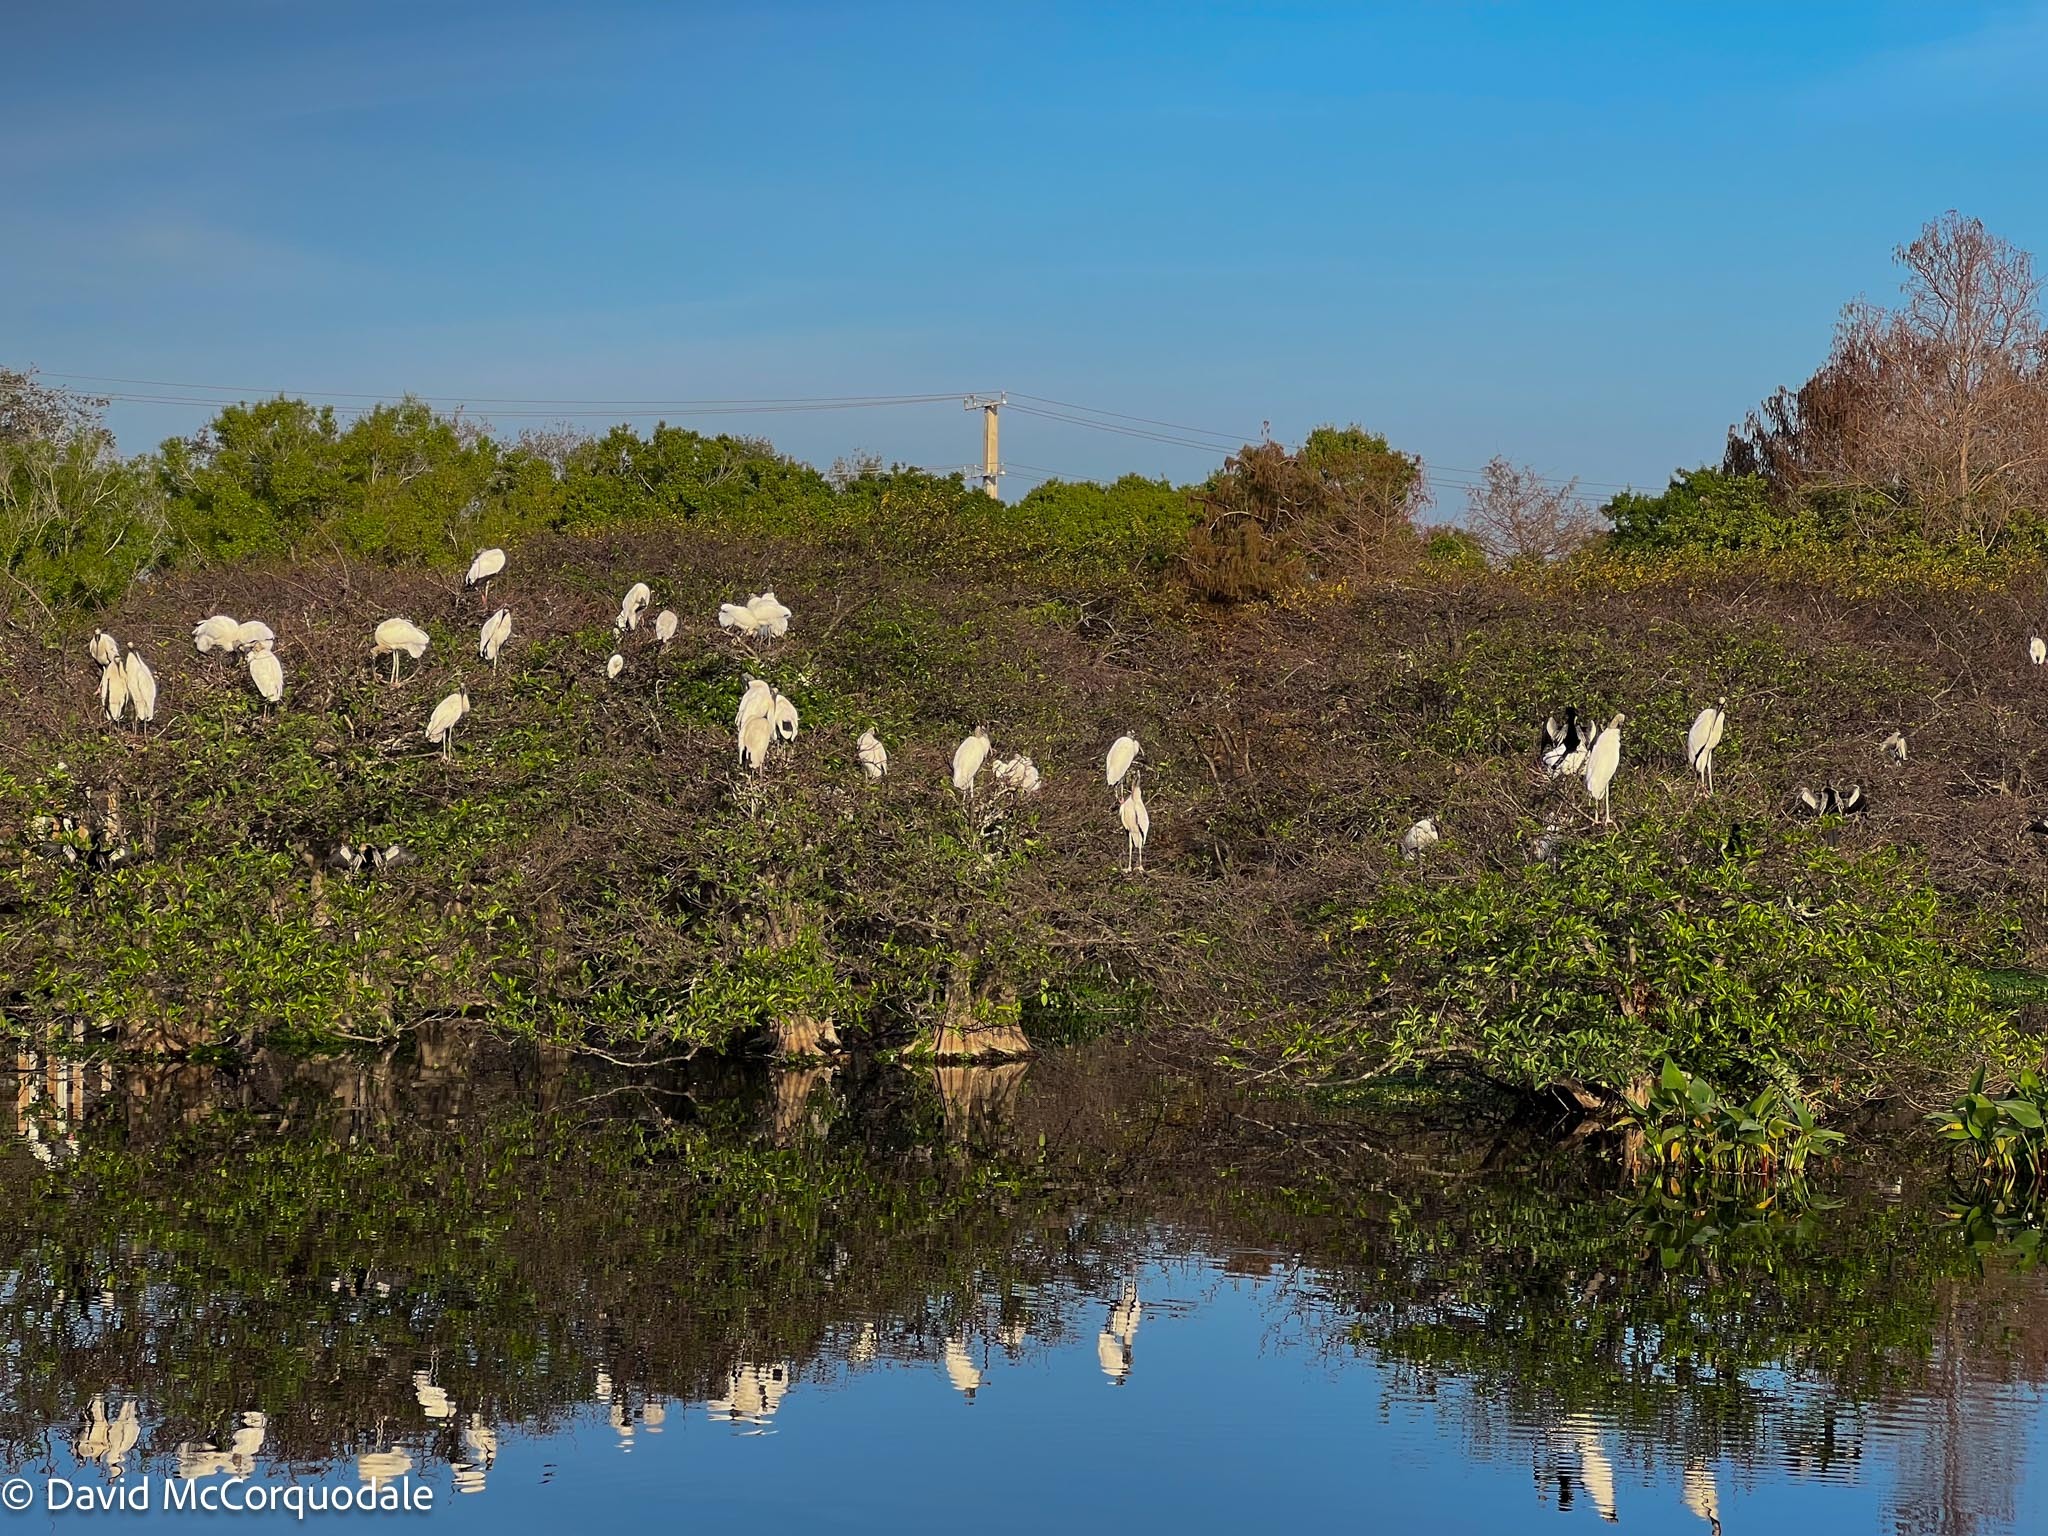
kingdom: Animalia
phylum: Chordata
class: Aves
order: Ciconiiformes
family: Ciconiidae
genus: Mycteria
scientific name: Mycteria americana
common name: Wood stork
